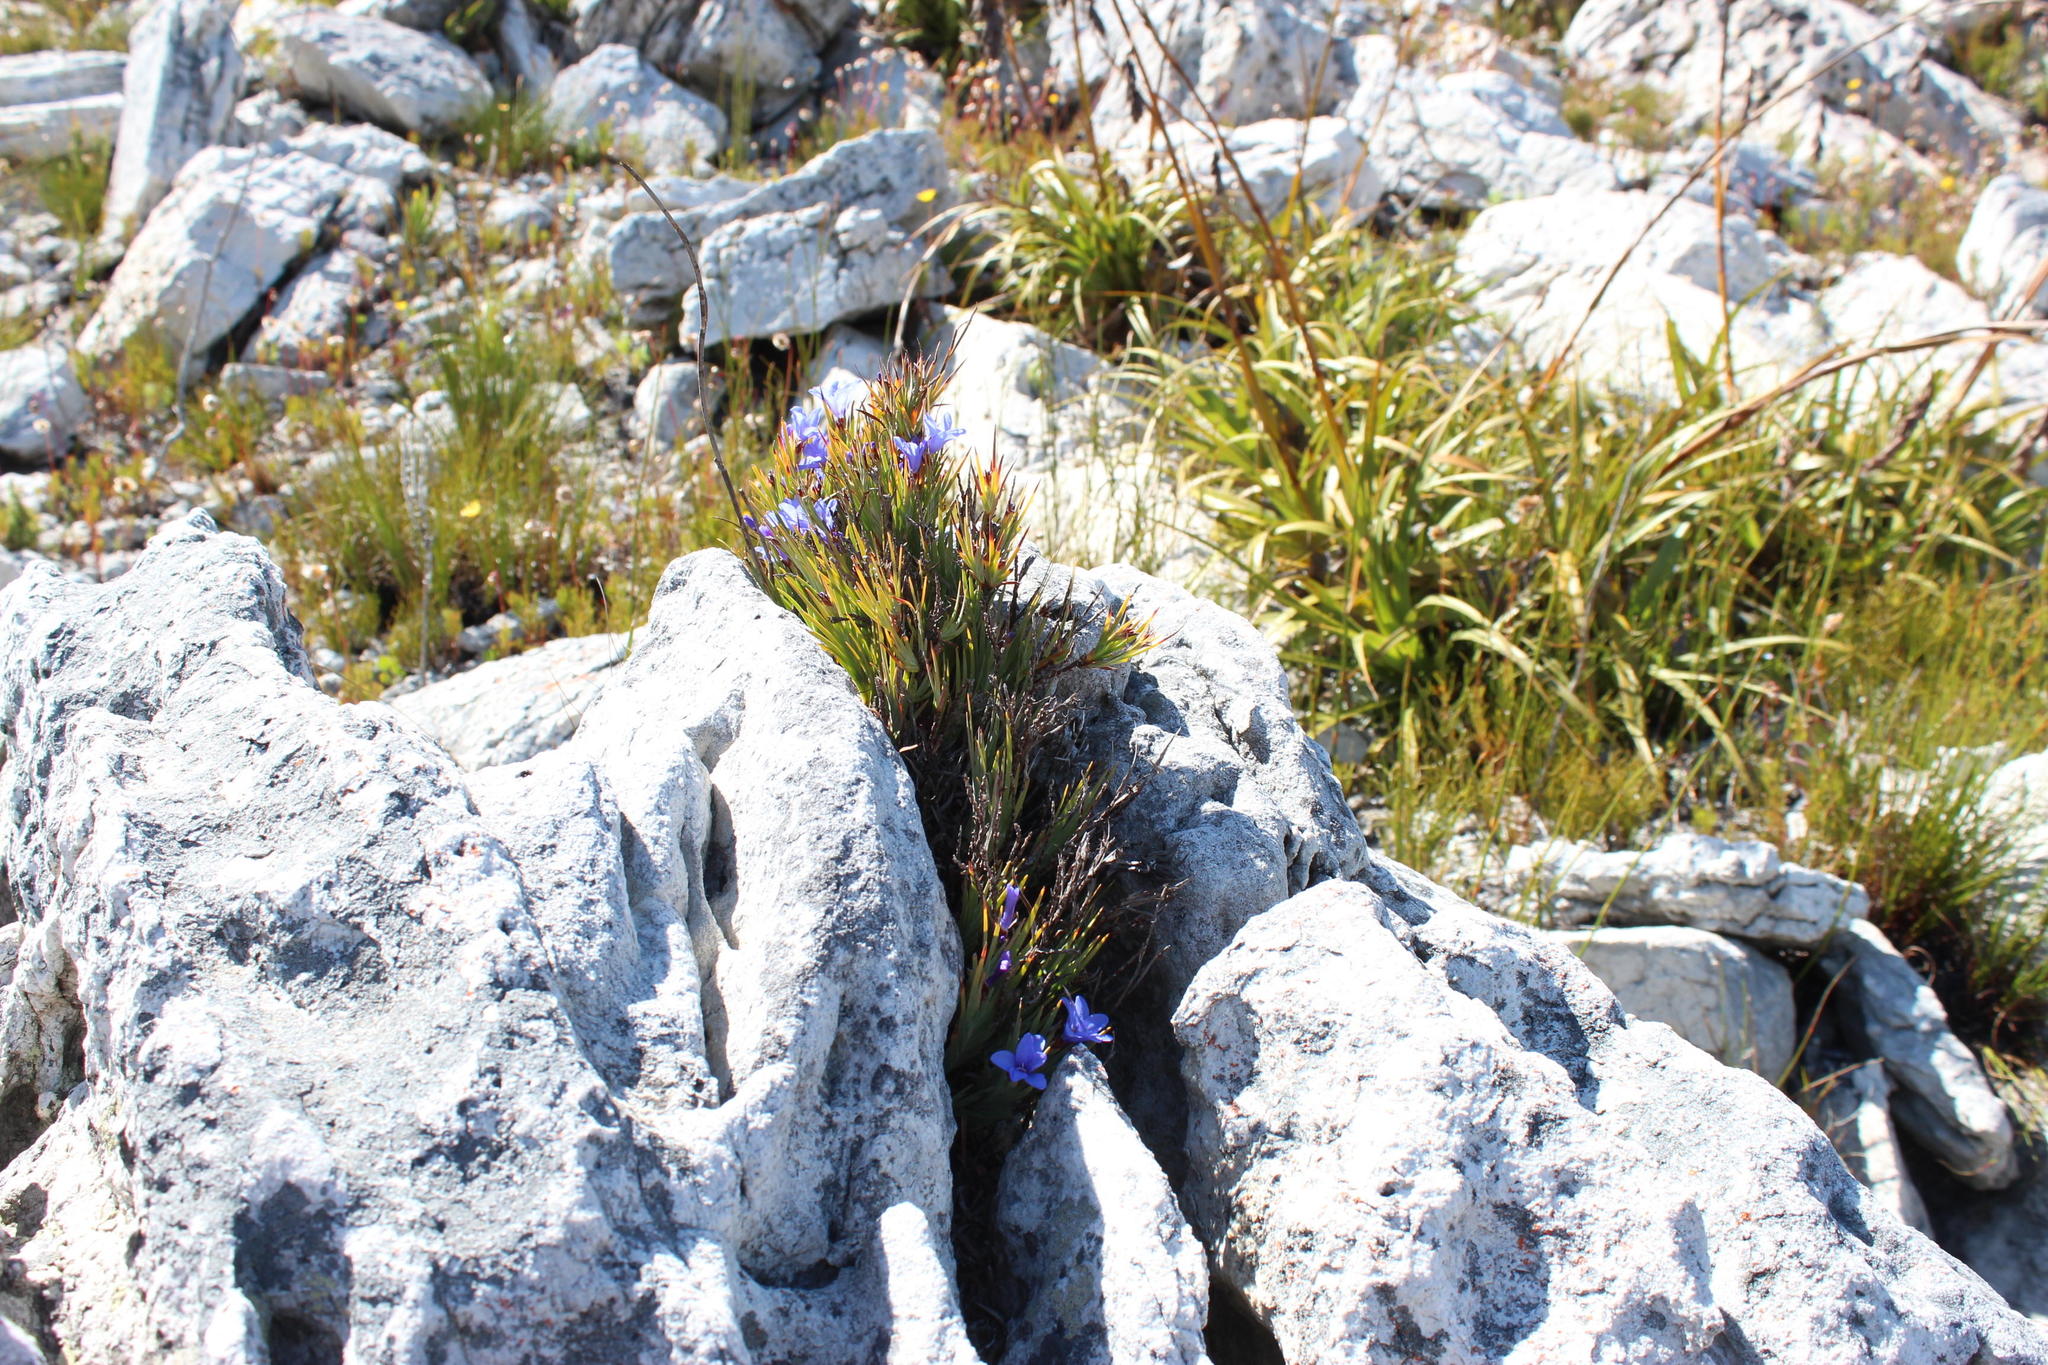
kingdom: Plantae
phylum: Tracheophyta
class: Liliopsida
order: Asparagales
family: Iridaceae
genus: Nivenia
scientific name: Nivenia levynsiae
